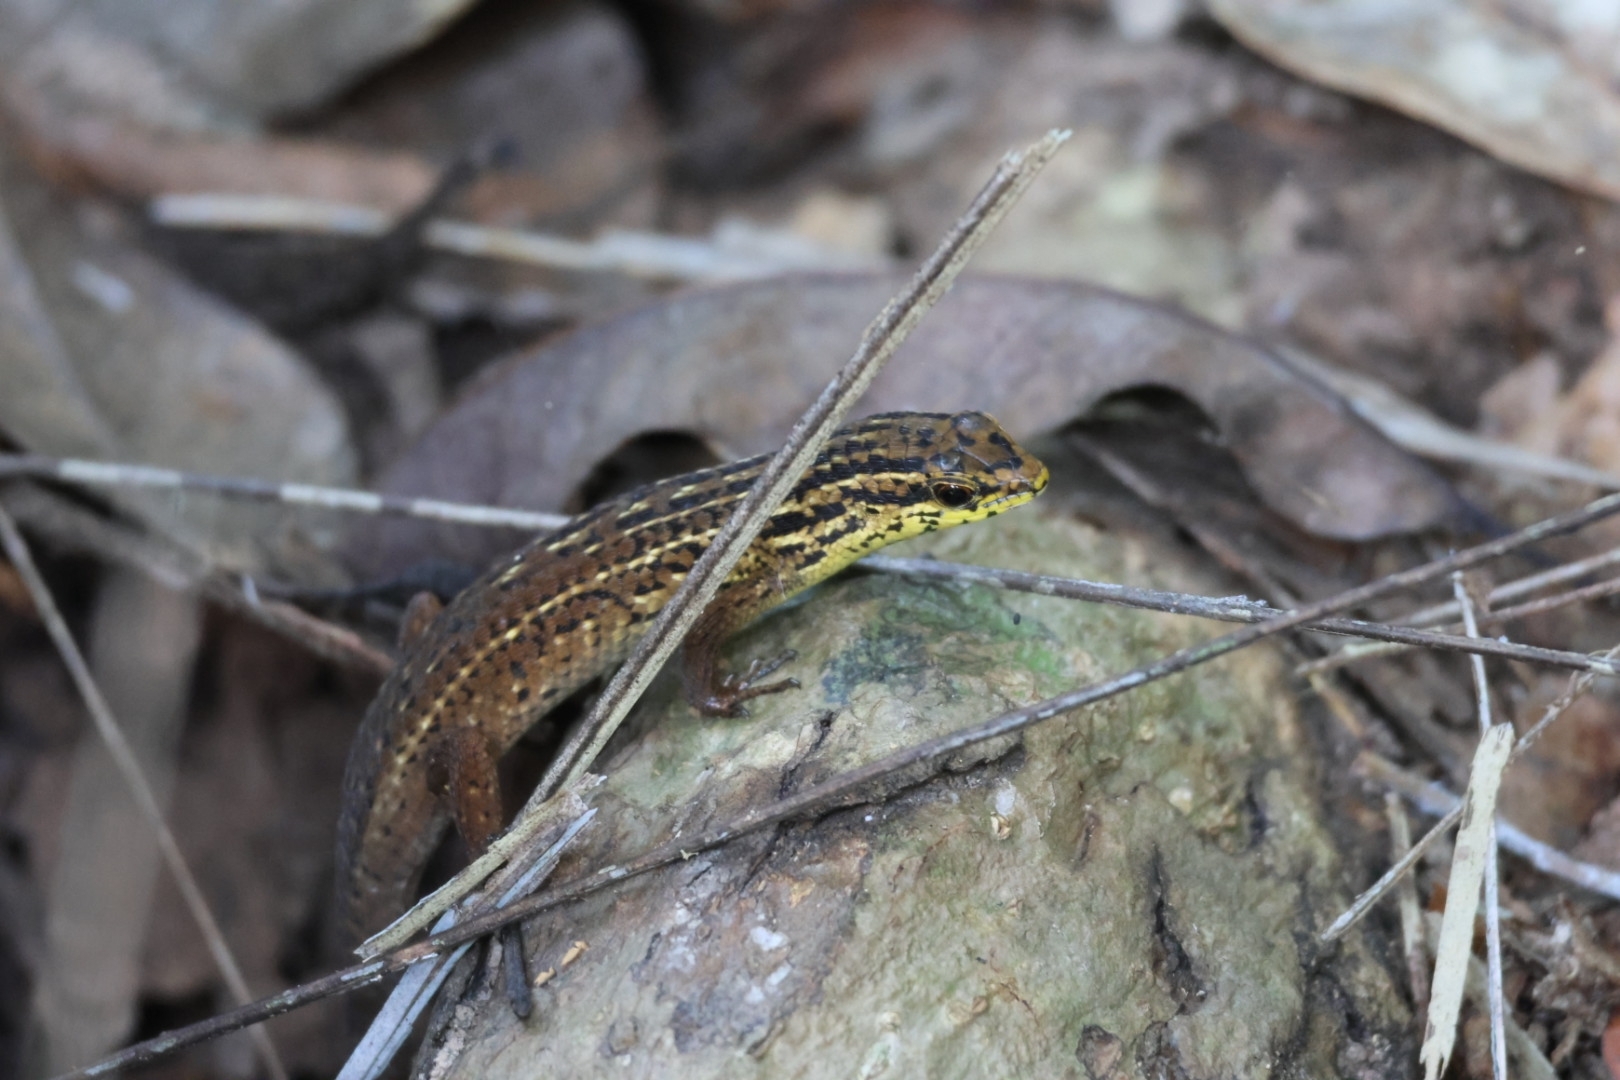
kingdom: Animalia
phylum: Chordata
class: Squamata
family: Scincidae
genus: Eutropis
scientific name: Eutropis rugifera
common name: Rough-scaled sun skink
